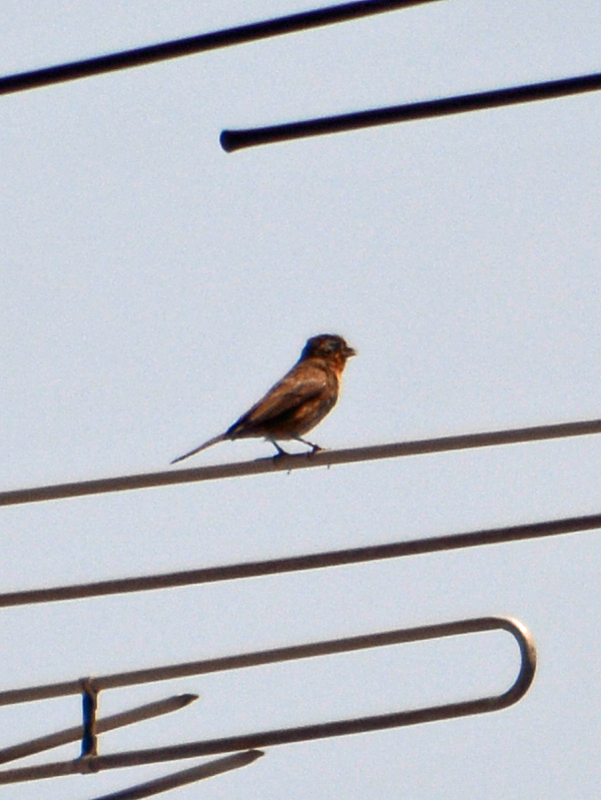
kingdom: Animalia
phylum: Chordata
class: Aves
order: Passeriformes
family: Fringillidae
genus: Haemorhous
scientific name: Haemorhous mexicanus
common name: House finch
